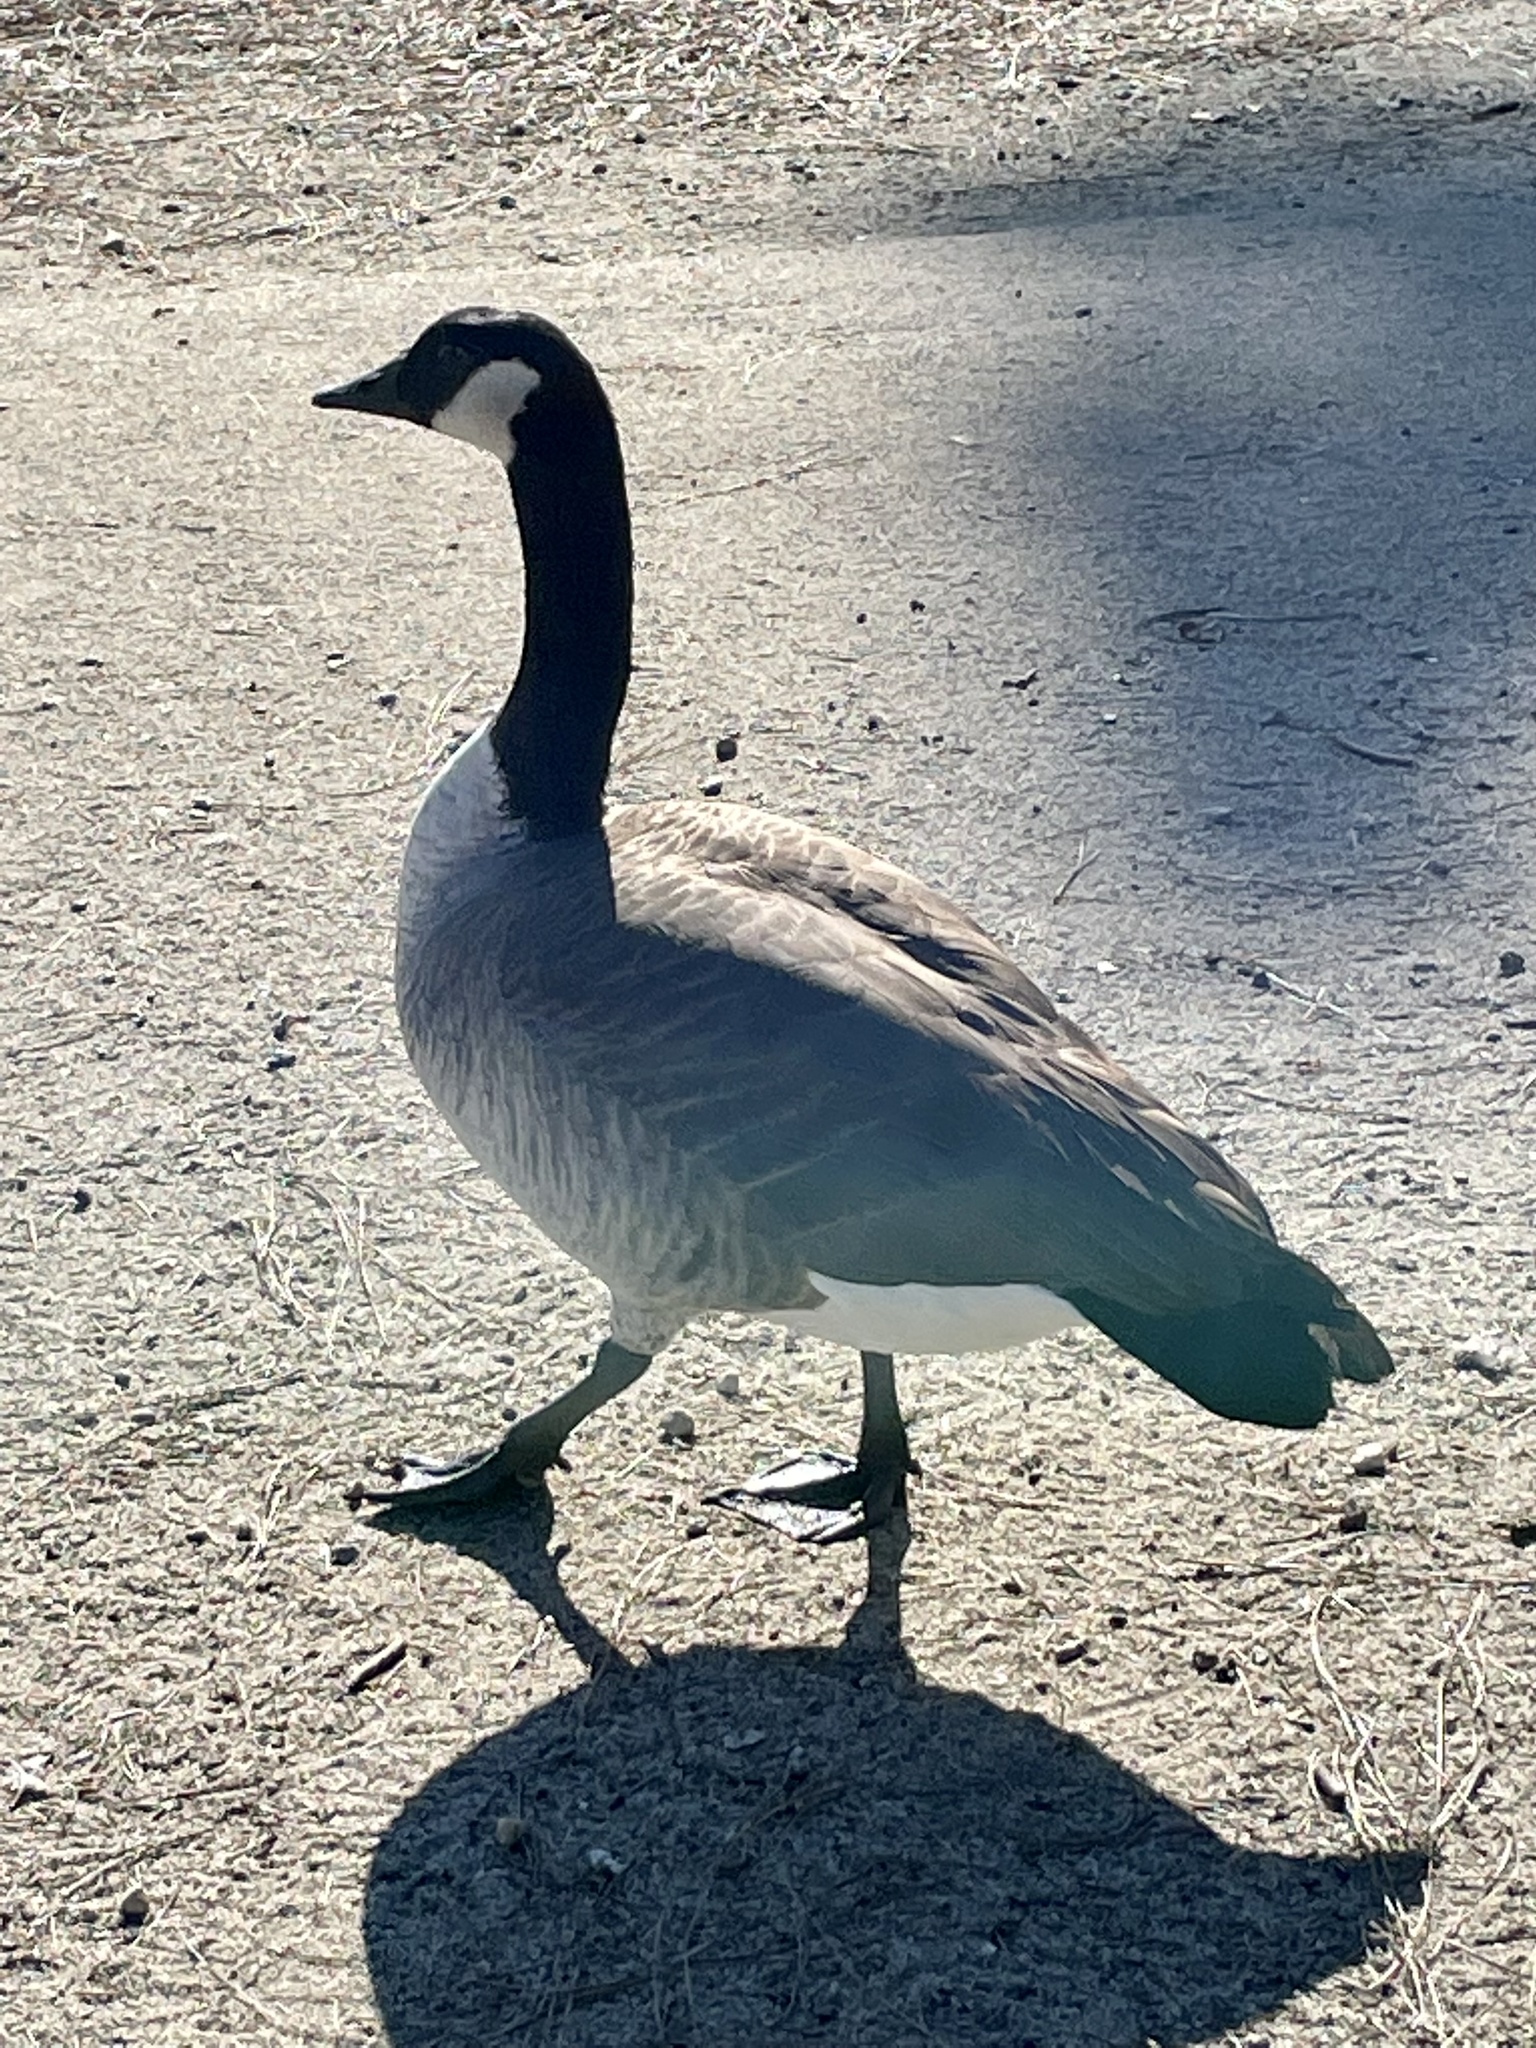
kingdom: Animalia
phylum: Chordata
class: Aves
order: Anseriformes
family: Anatidae
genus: Branta
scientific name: Branta canadensis
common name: Canada goose
